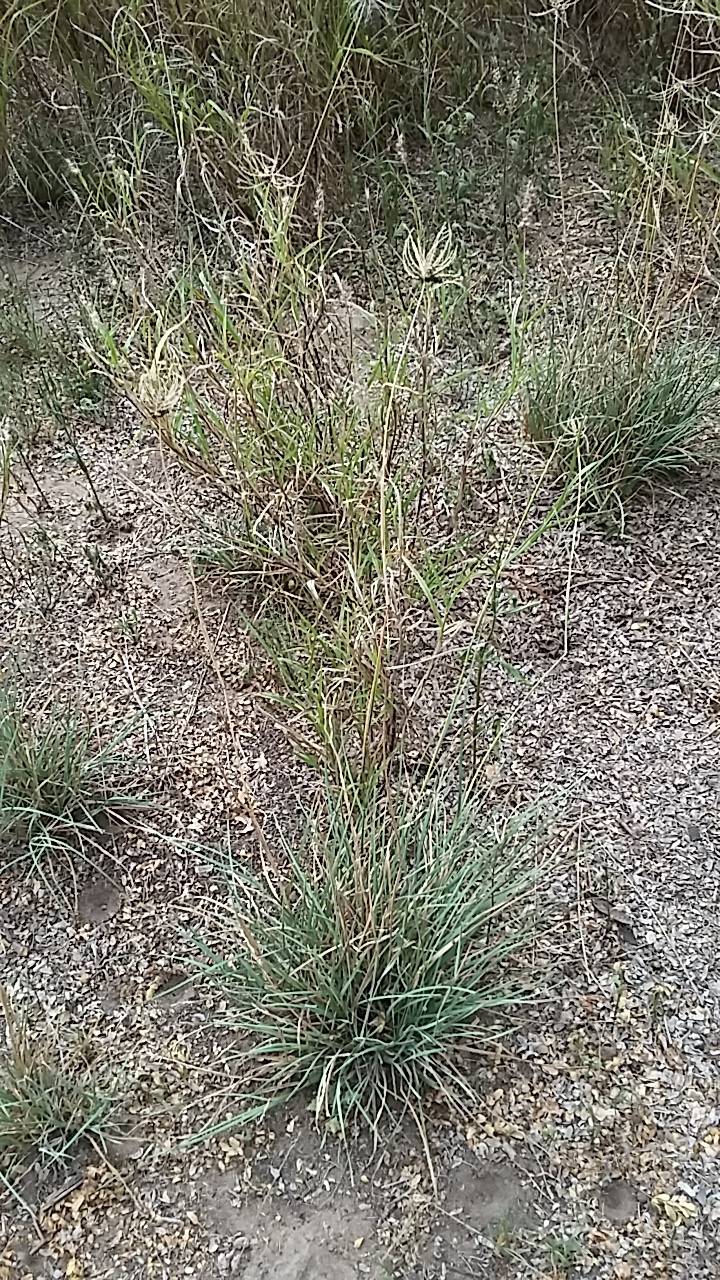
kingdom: Plantae
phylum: Tracheophyta
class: Liliopsida
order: Poales
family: Poaceae
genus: Chloris
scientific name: Chloris cucullata
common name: Hooded windmill grass
